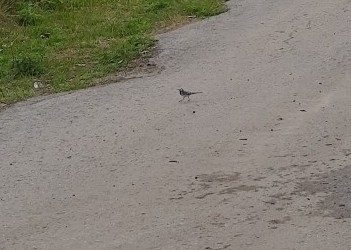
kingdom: Animalia
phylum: Chordata
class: Aves
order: Passeriformes
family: Motacillidae
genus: Motacilla
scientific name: Motacilla alba
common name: White wagtail
